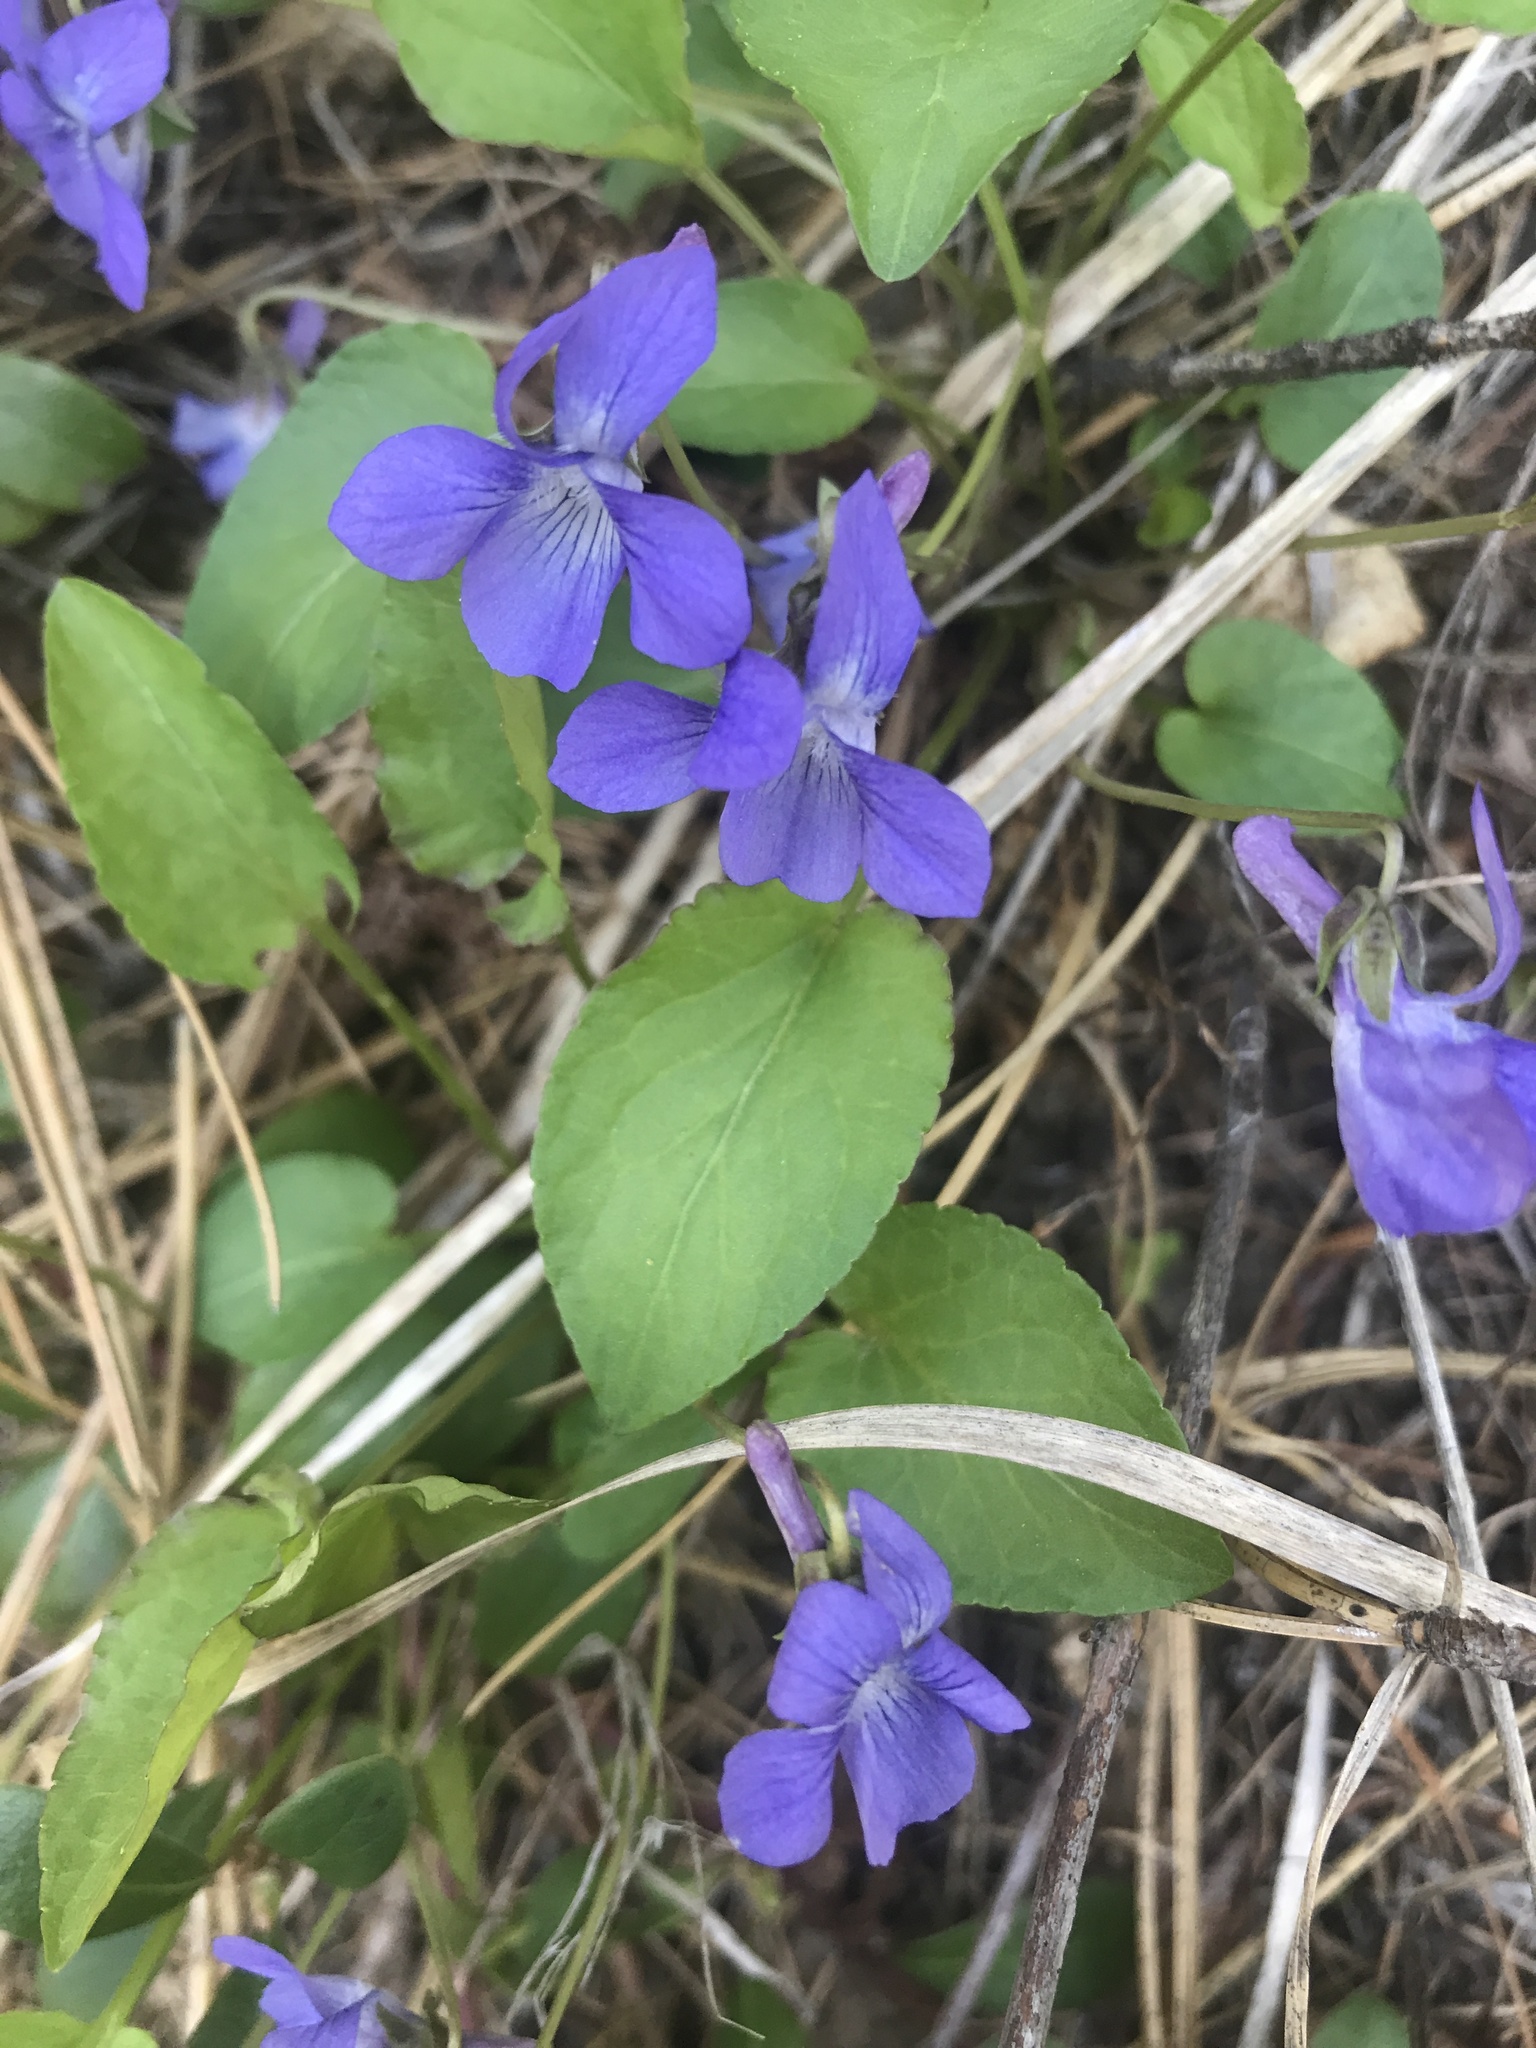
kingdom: Plantae
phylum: Tracheophyta
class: Magnoliopsida
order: Malpighiales
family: Violaceae
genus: Viola
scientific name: Viola adunca
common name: Sand violet
